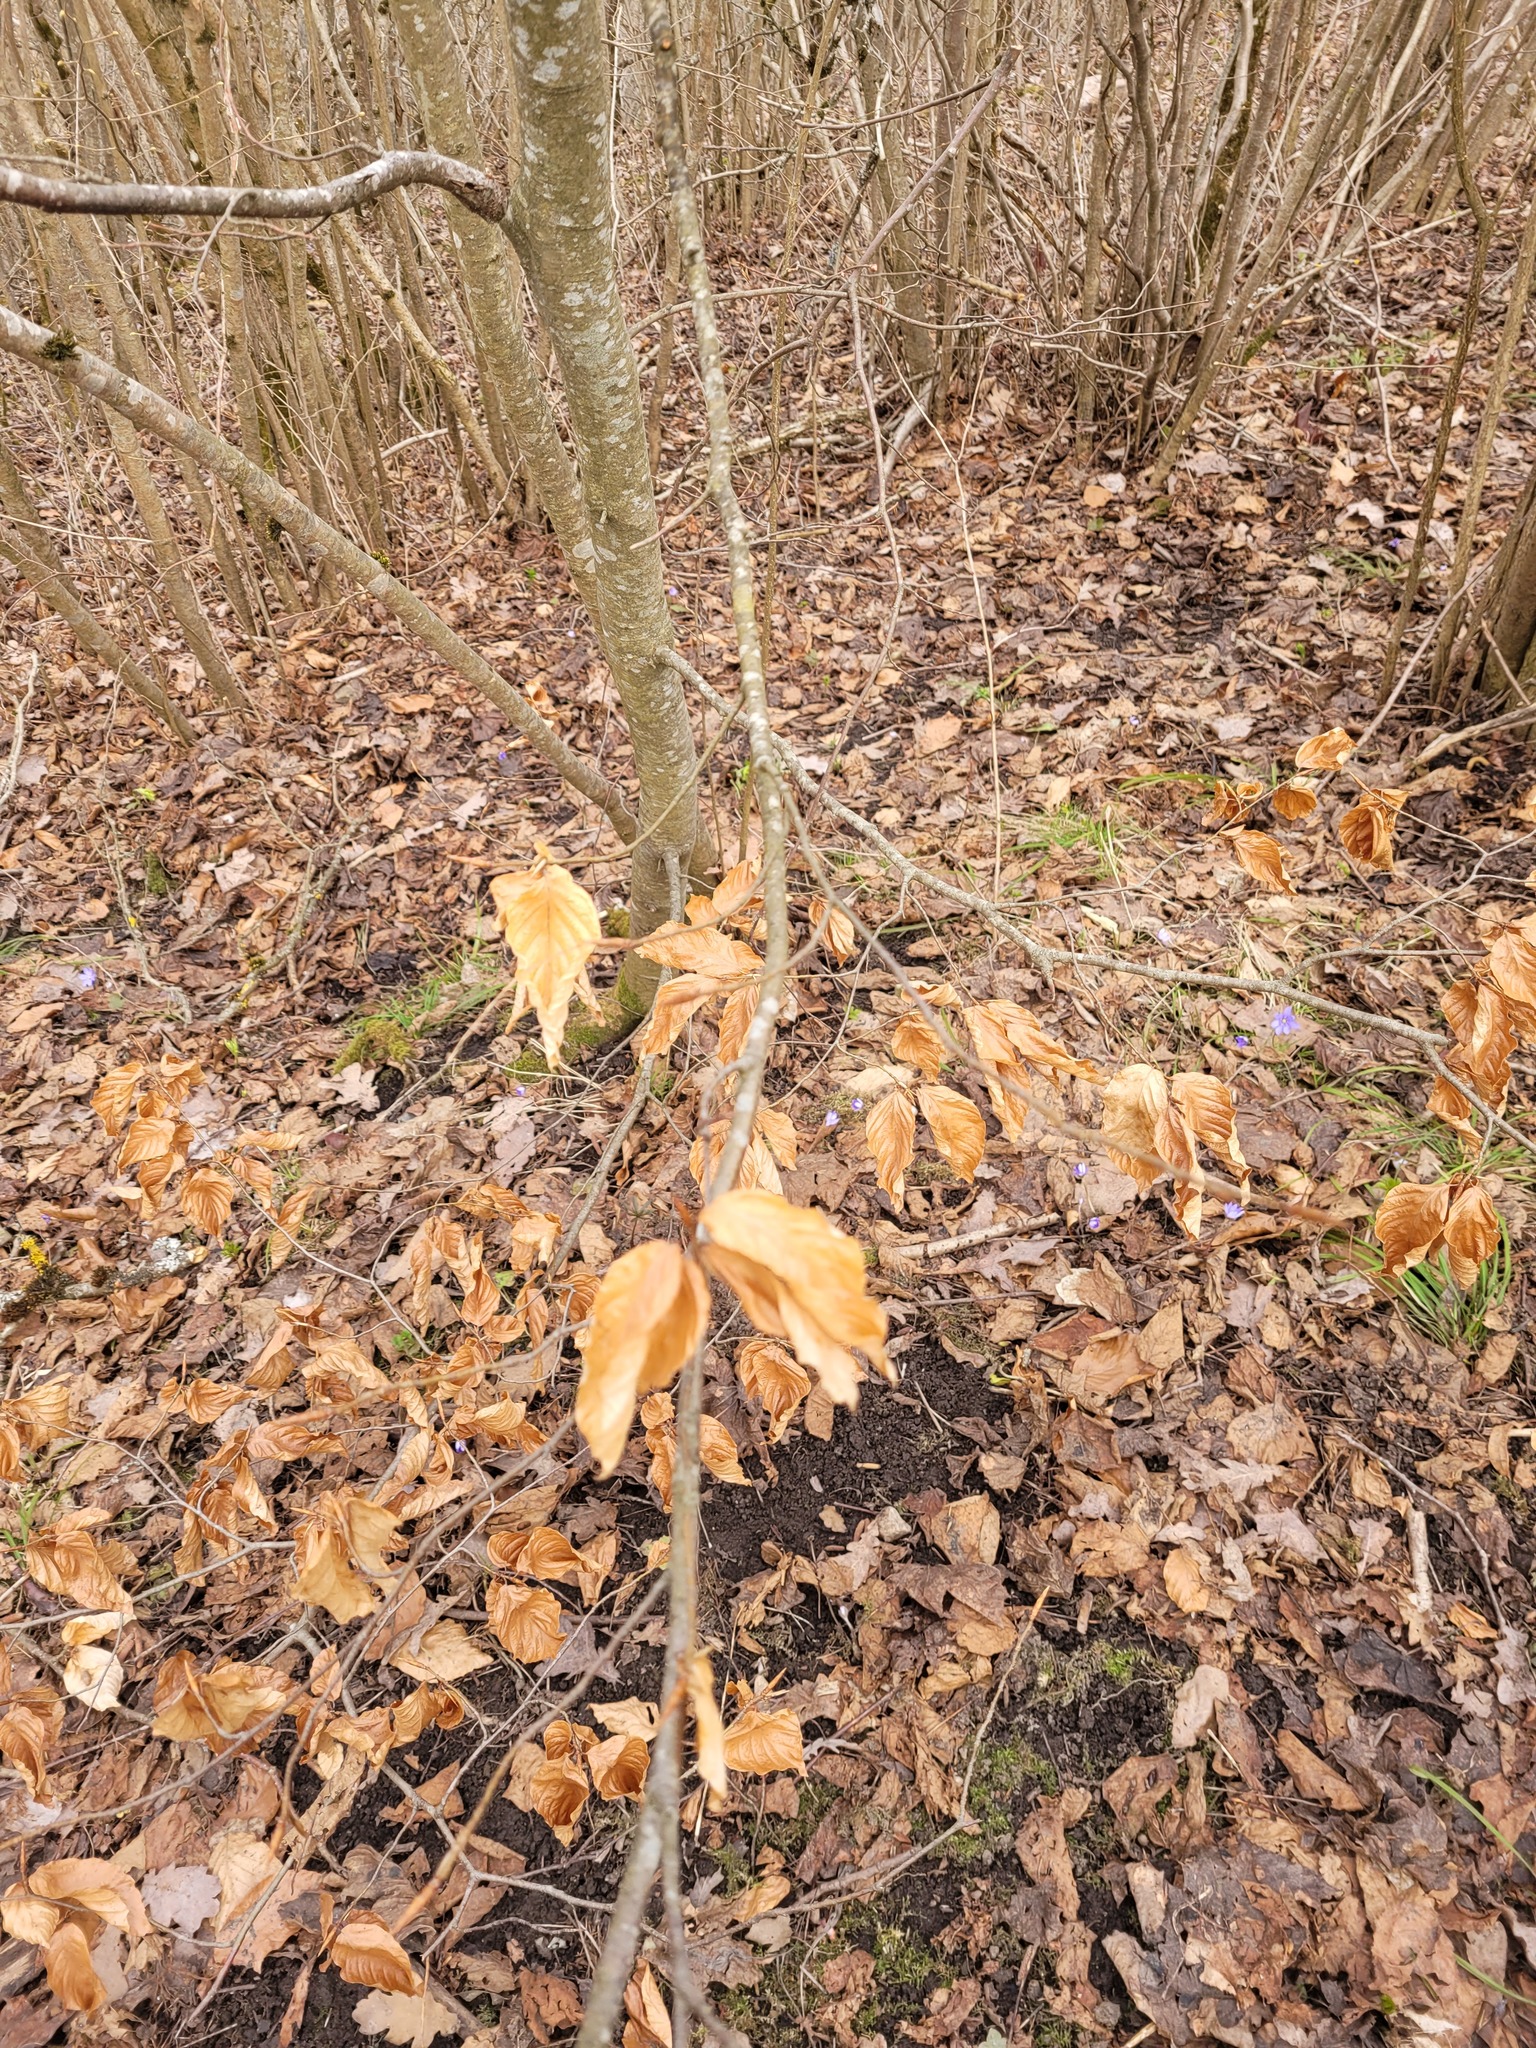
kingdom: Plantae
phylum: Tracheophyta
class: Magnoliopsida
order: Fagales
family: Fagaceae
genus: Fagus
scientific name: Fagus sylvatica
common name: Beech
